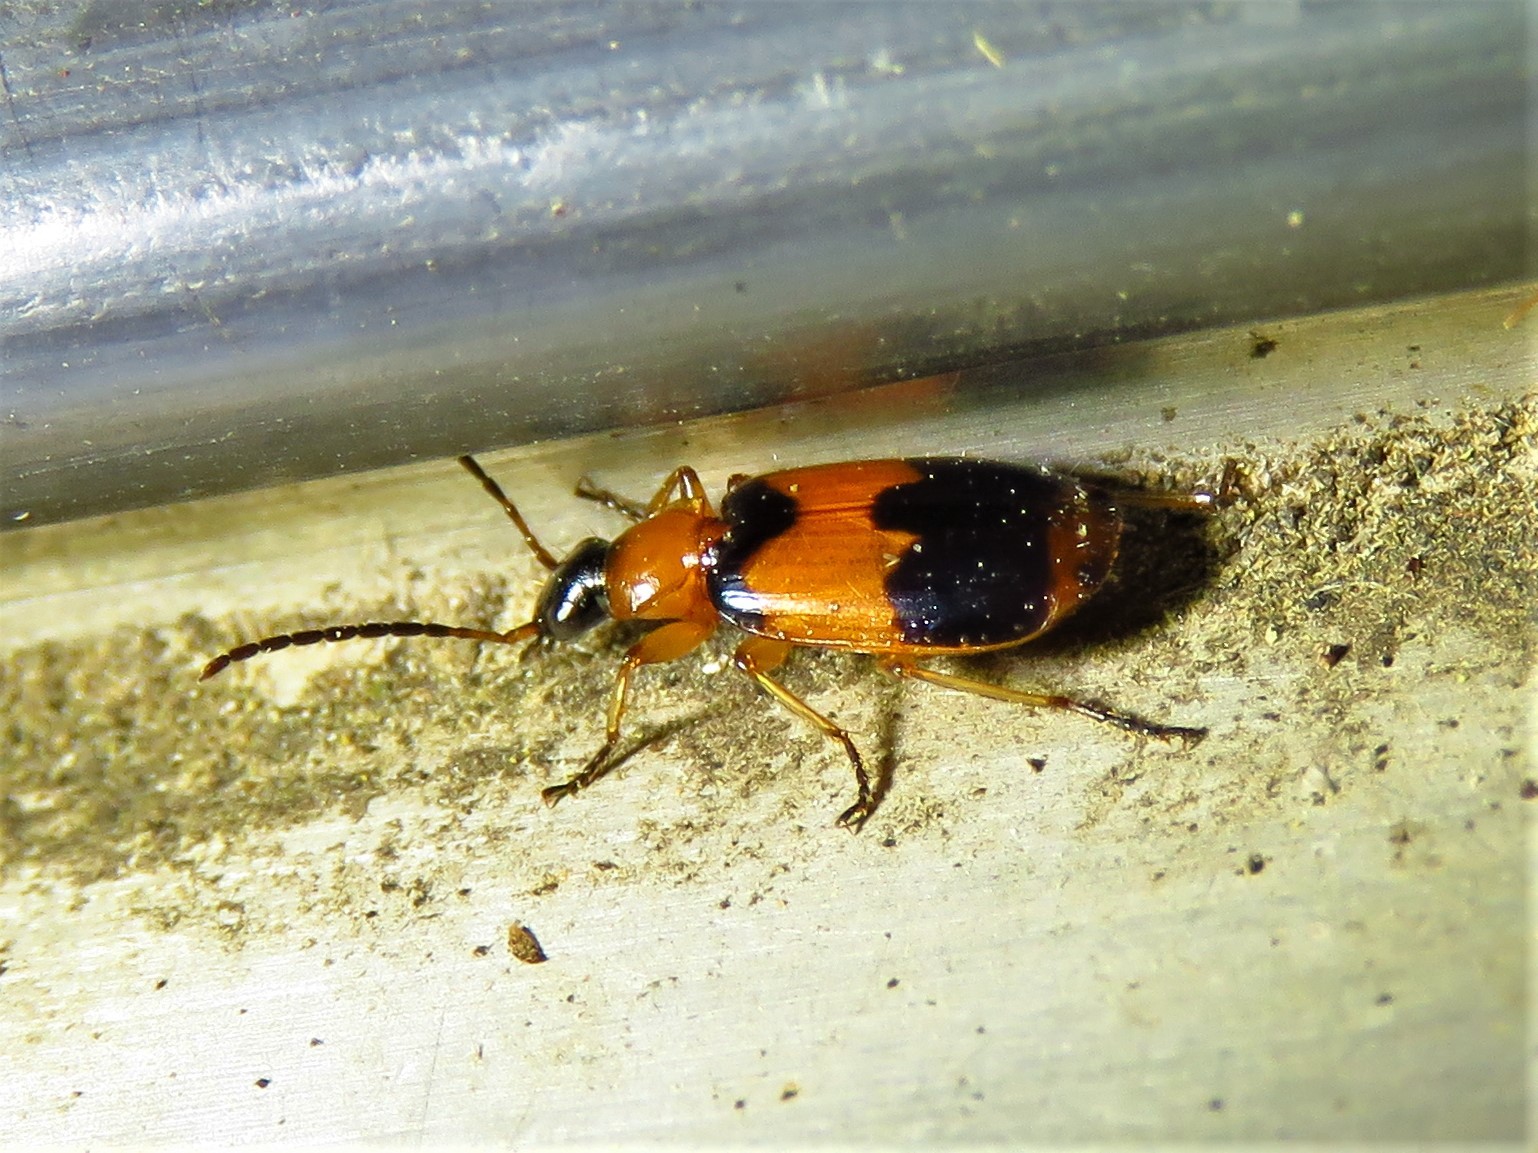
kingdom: Animalia
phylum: Arthropoda
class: Insecta
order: Coleoptera
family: Carabidae
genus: Lebia
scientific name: Lebia pulchella
